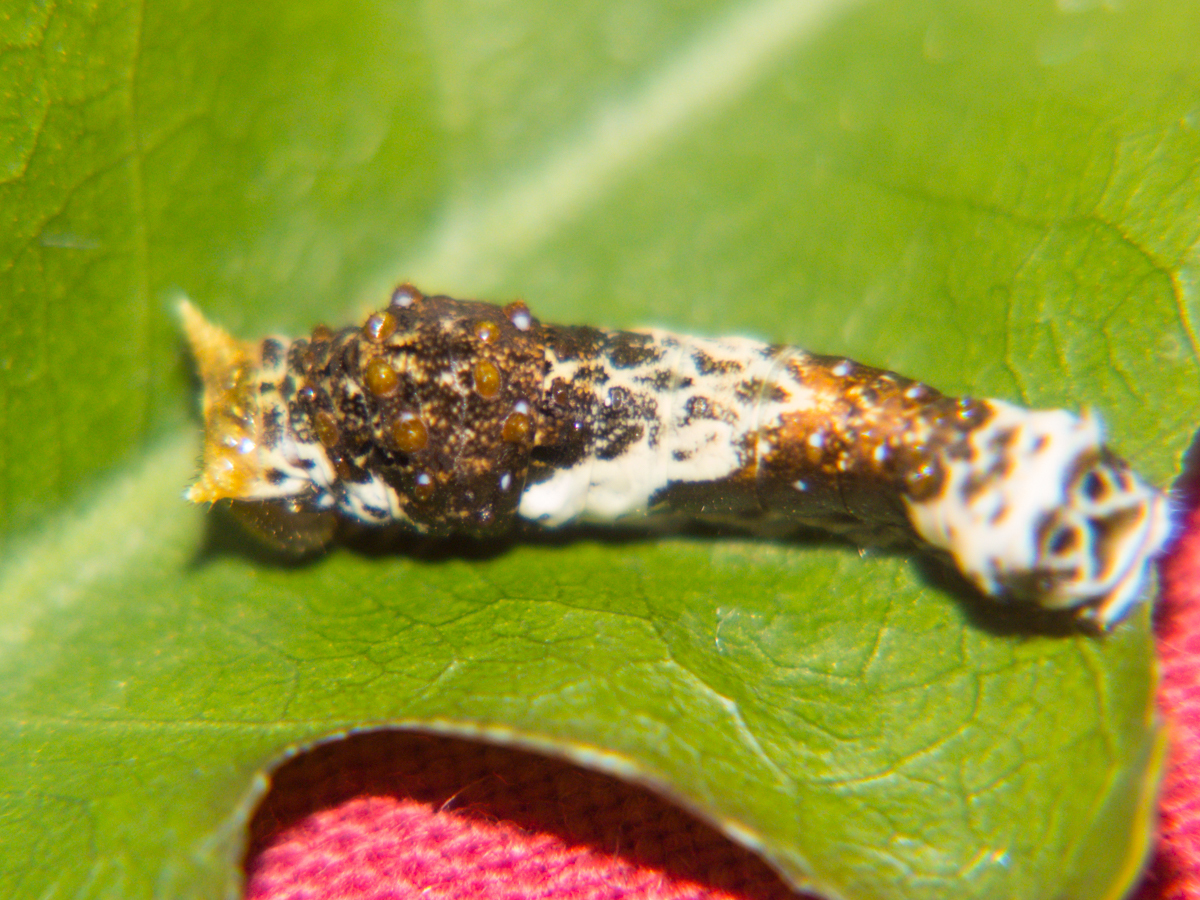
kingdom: Animalia
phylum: Arthropoda
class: Insecta
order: Lepidoptera
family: Papilionidae
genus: Papilio
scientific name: Papilio polytes
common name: Common mormon
